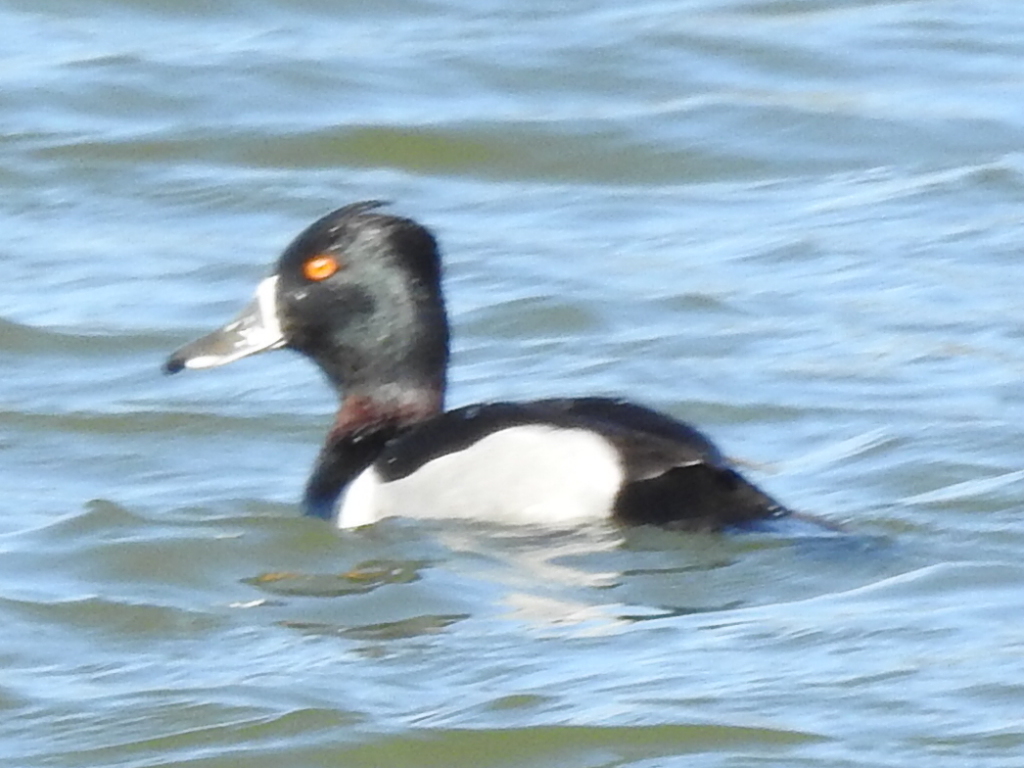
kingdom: Animalia
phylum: Chordata
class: Aves
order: Anseriformes
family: Anatidae
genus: Aythya
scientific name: Aythya collaris
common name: Ring-necked duck
